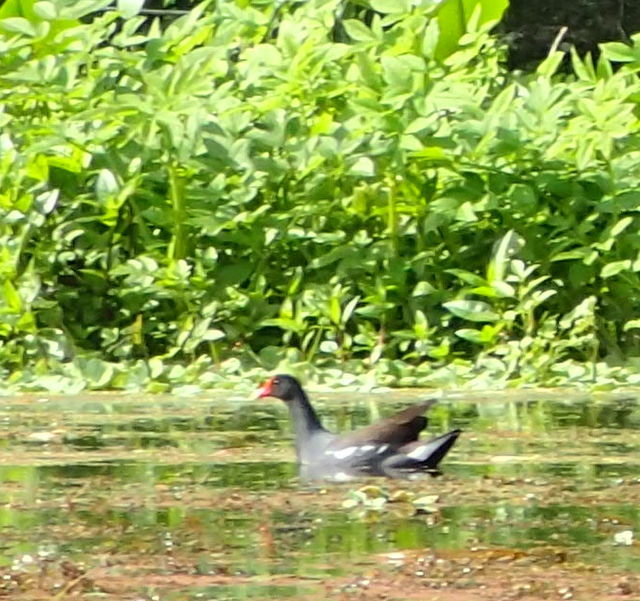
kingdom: Animalia
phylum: Chordata
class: Aves
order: Gruiformes
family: Rallidae
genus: Gallinula
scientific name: Gallinula chloropus
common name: Common moorhen
